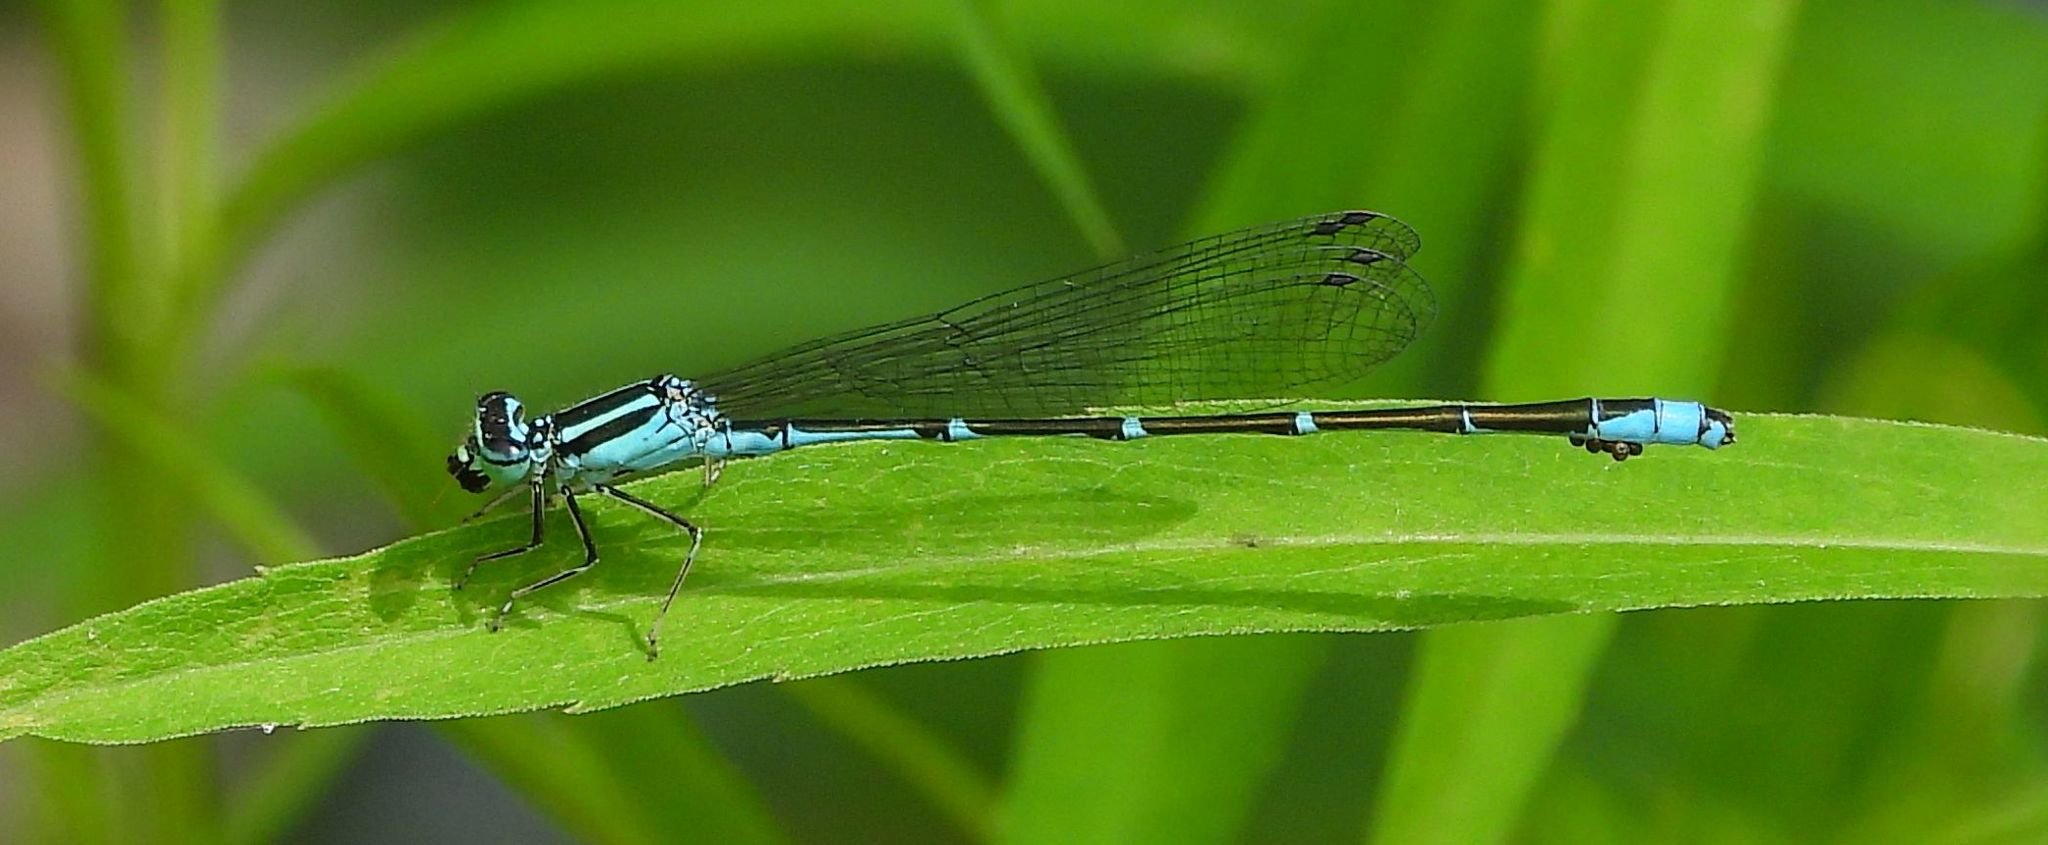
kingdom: Animalia
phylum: Arthropoda
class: Insecta
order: Odonata
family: Coenagrionidae
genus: Enallagma
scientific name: Enallagma exsulans
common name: Stream bluet
